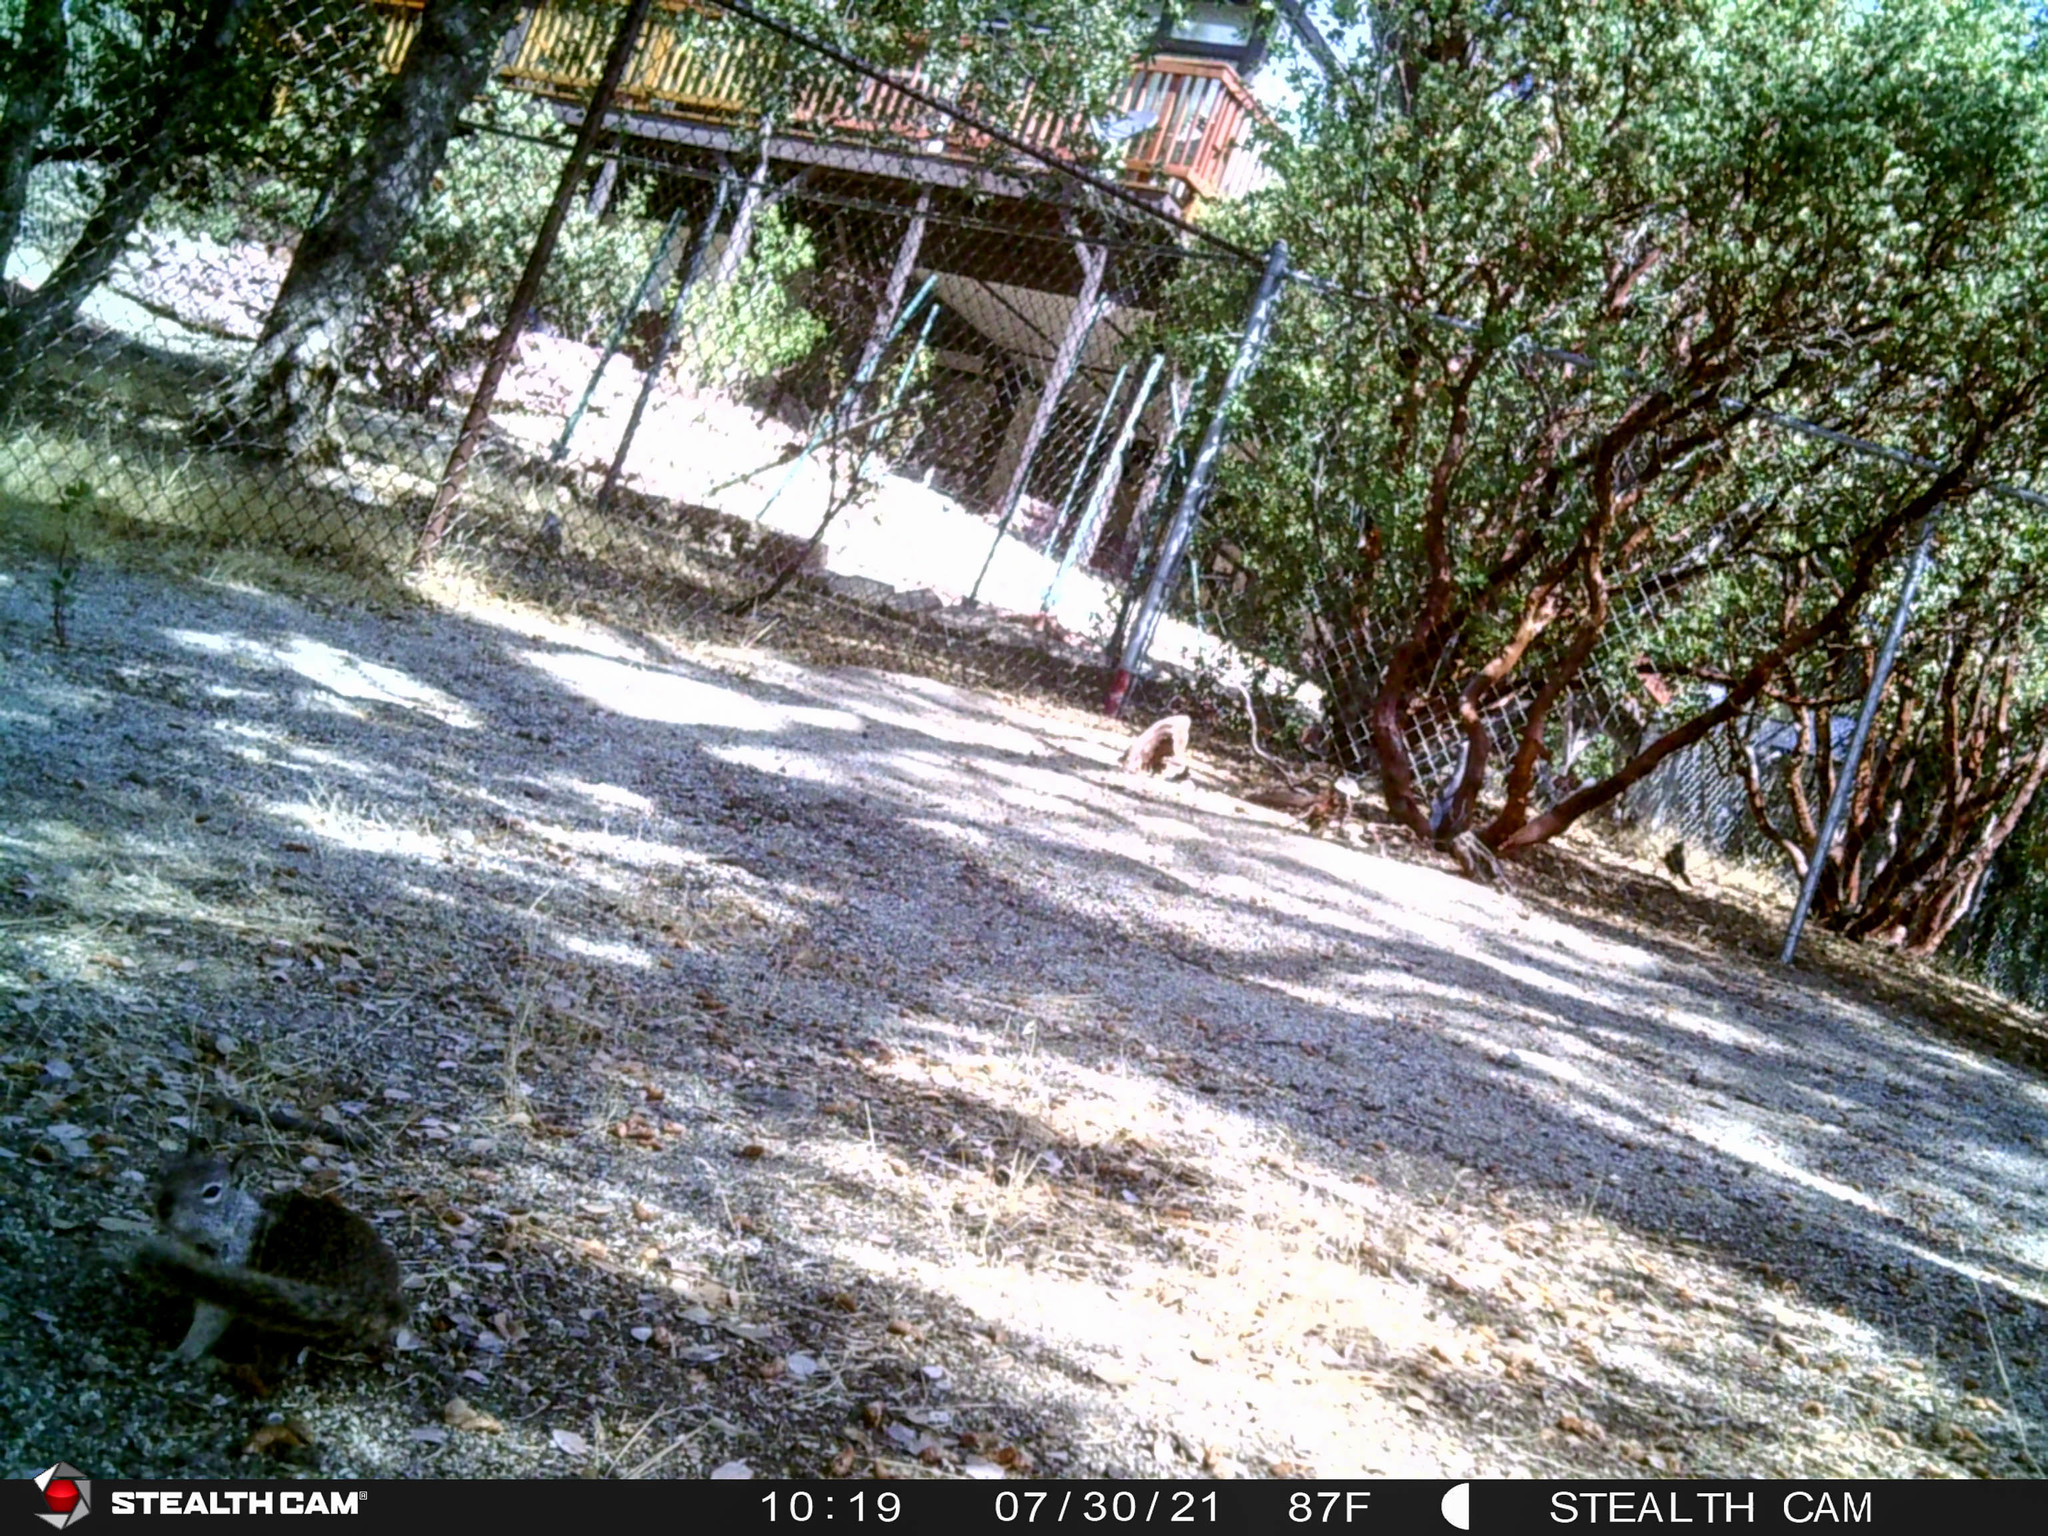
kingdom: Animalia
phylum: Chordata
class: Mammalia
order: Rodentia
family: Sciuridae
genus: Otospermophilus
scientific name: Otospermophilus beecheyi
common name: California ground squirrel
